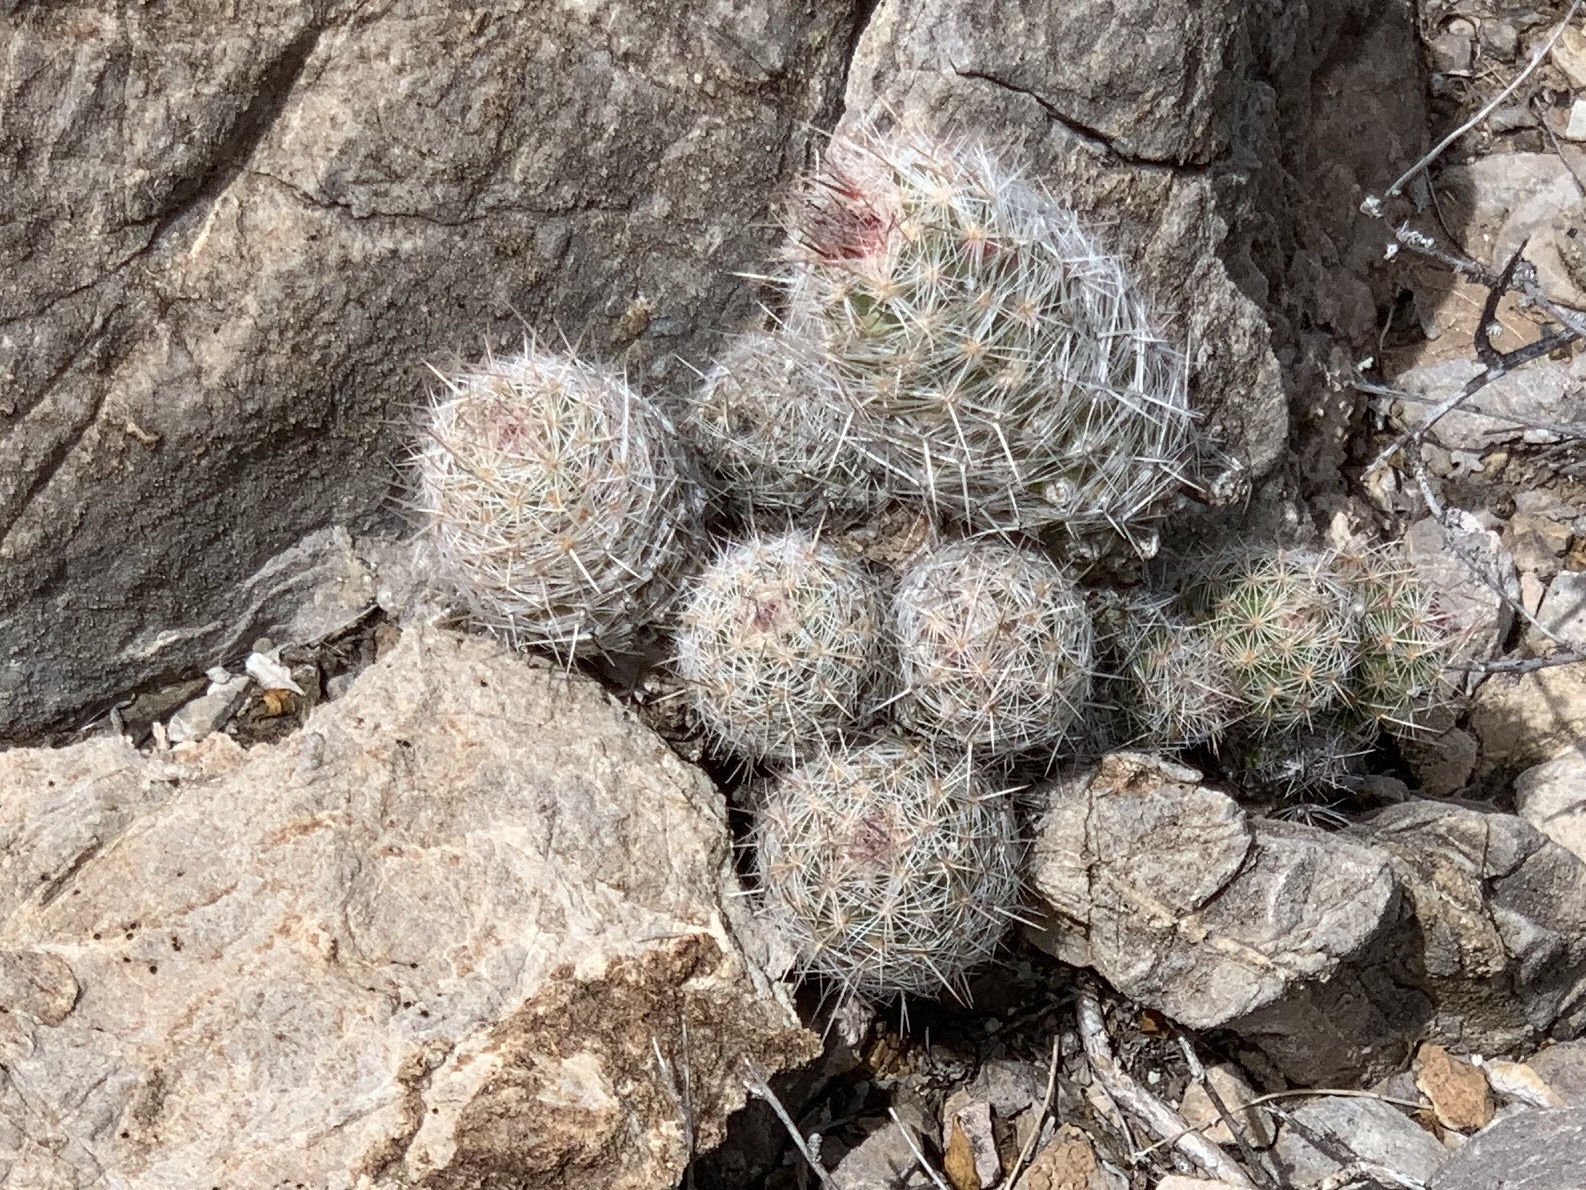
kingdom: Plantae
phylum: Tracheophyta
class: Magnoliopsida
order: Caryophyllales
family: Cactaceae
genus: Pelecyphora
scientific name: Pelecyphora tuberculosa
